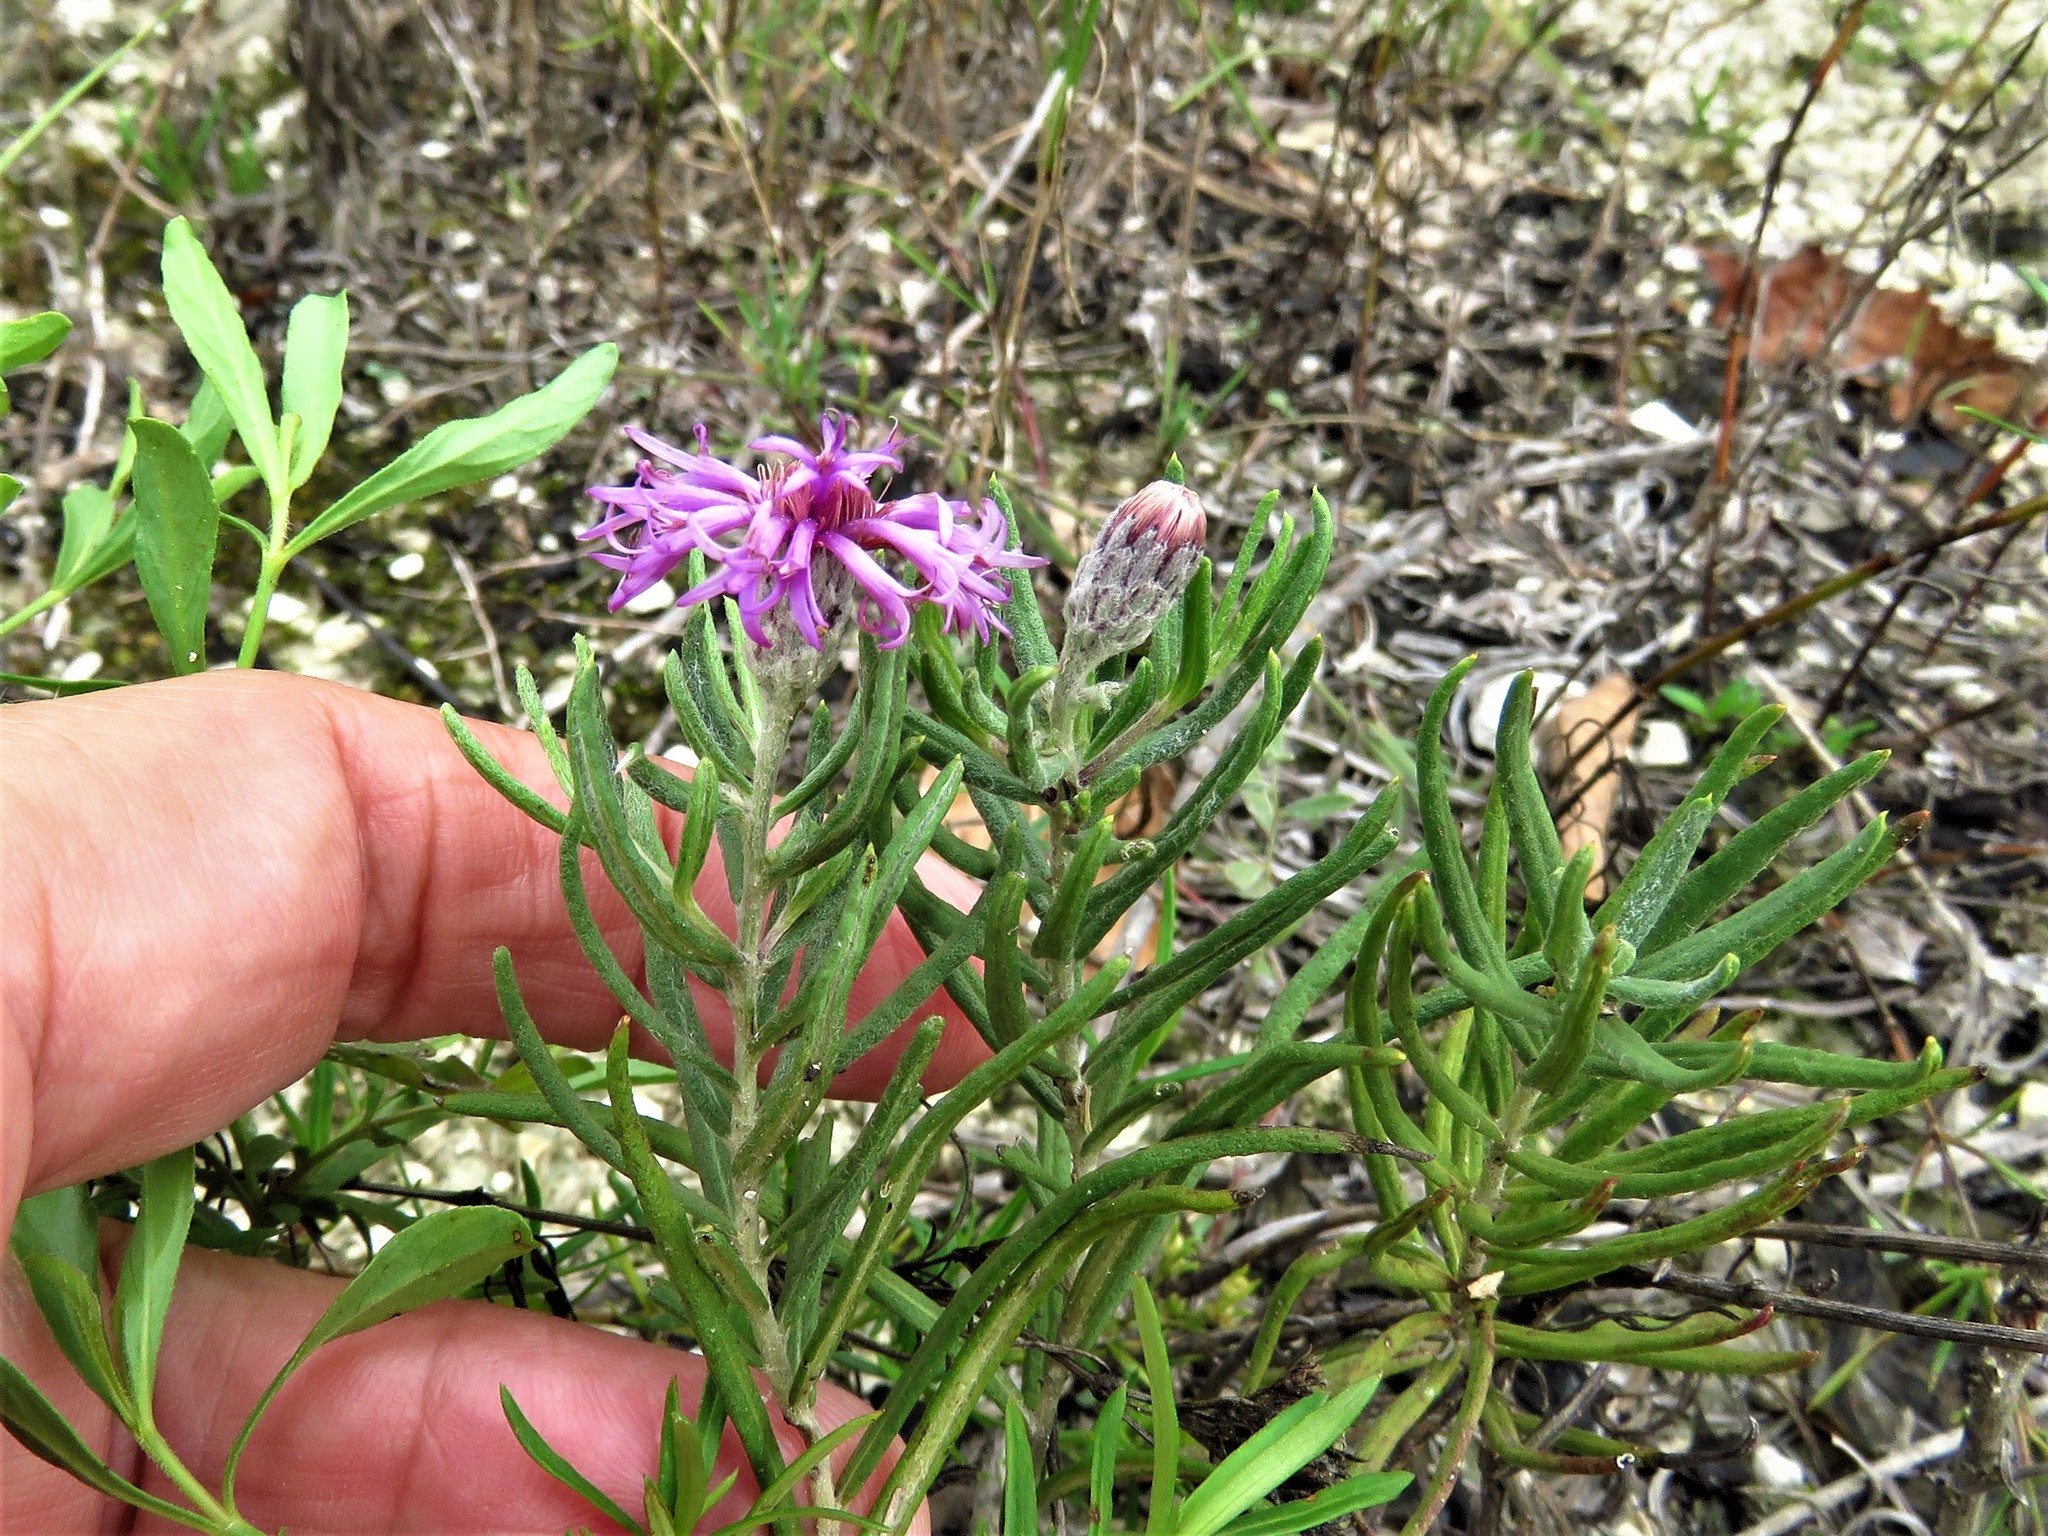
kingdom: Plantae
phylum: Tracheophyta
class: Magnoliopsida
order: Asterales
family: Asteraceae
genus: Vernonia
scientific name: Vernonia lindheimeri
